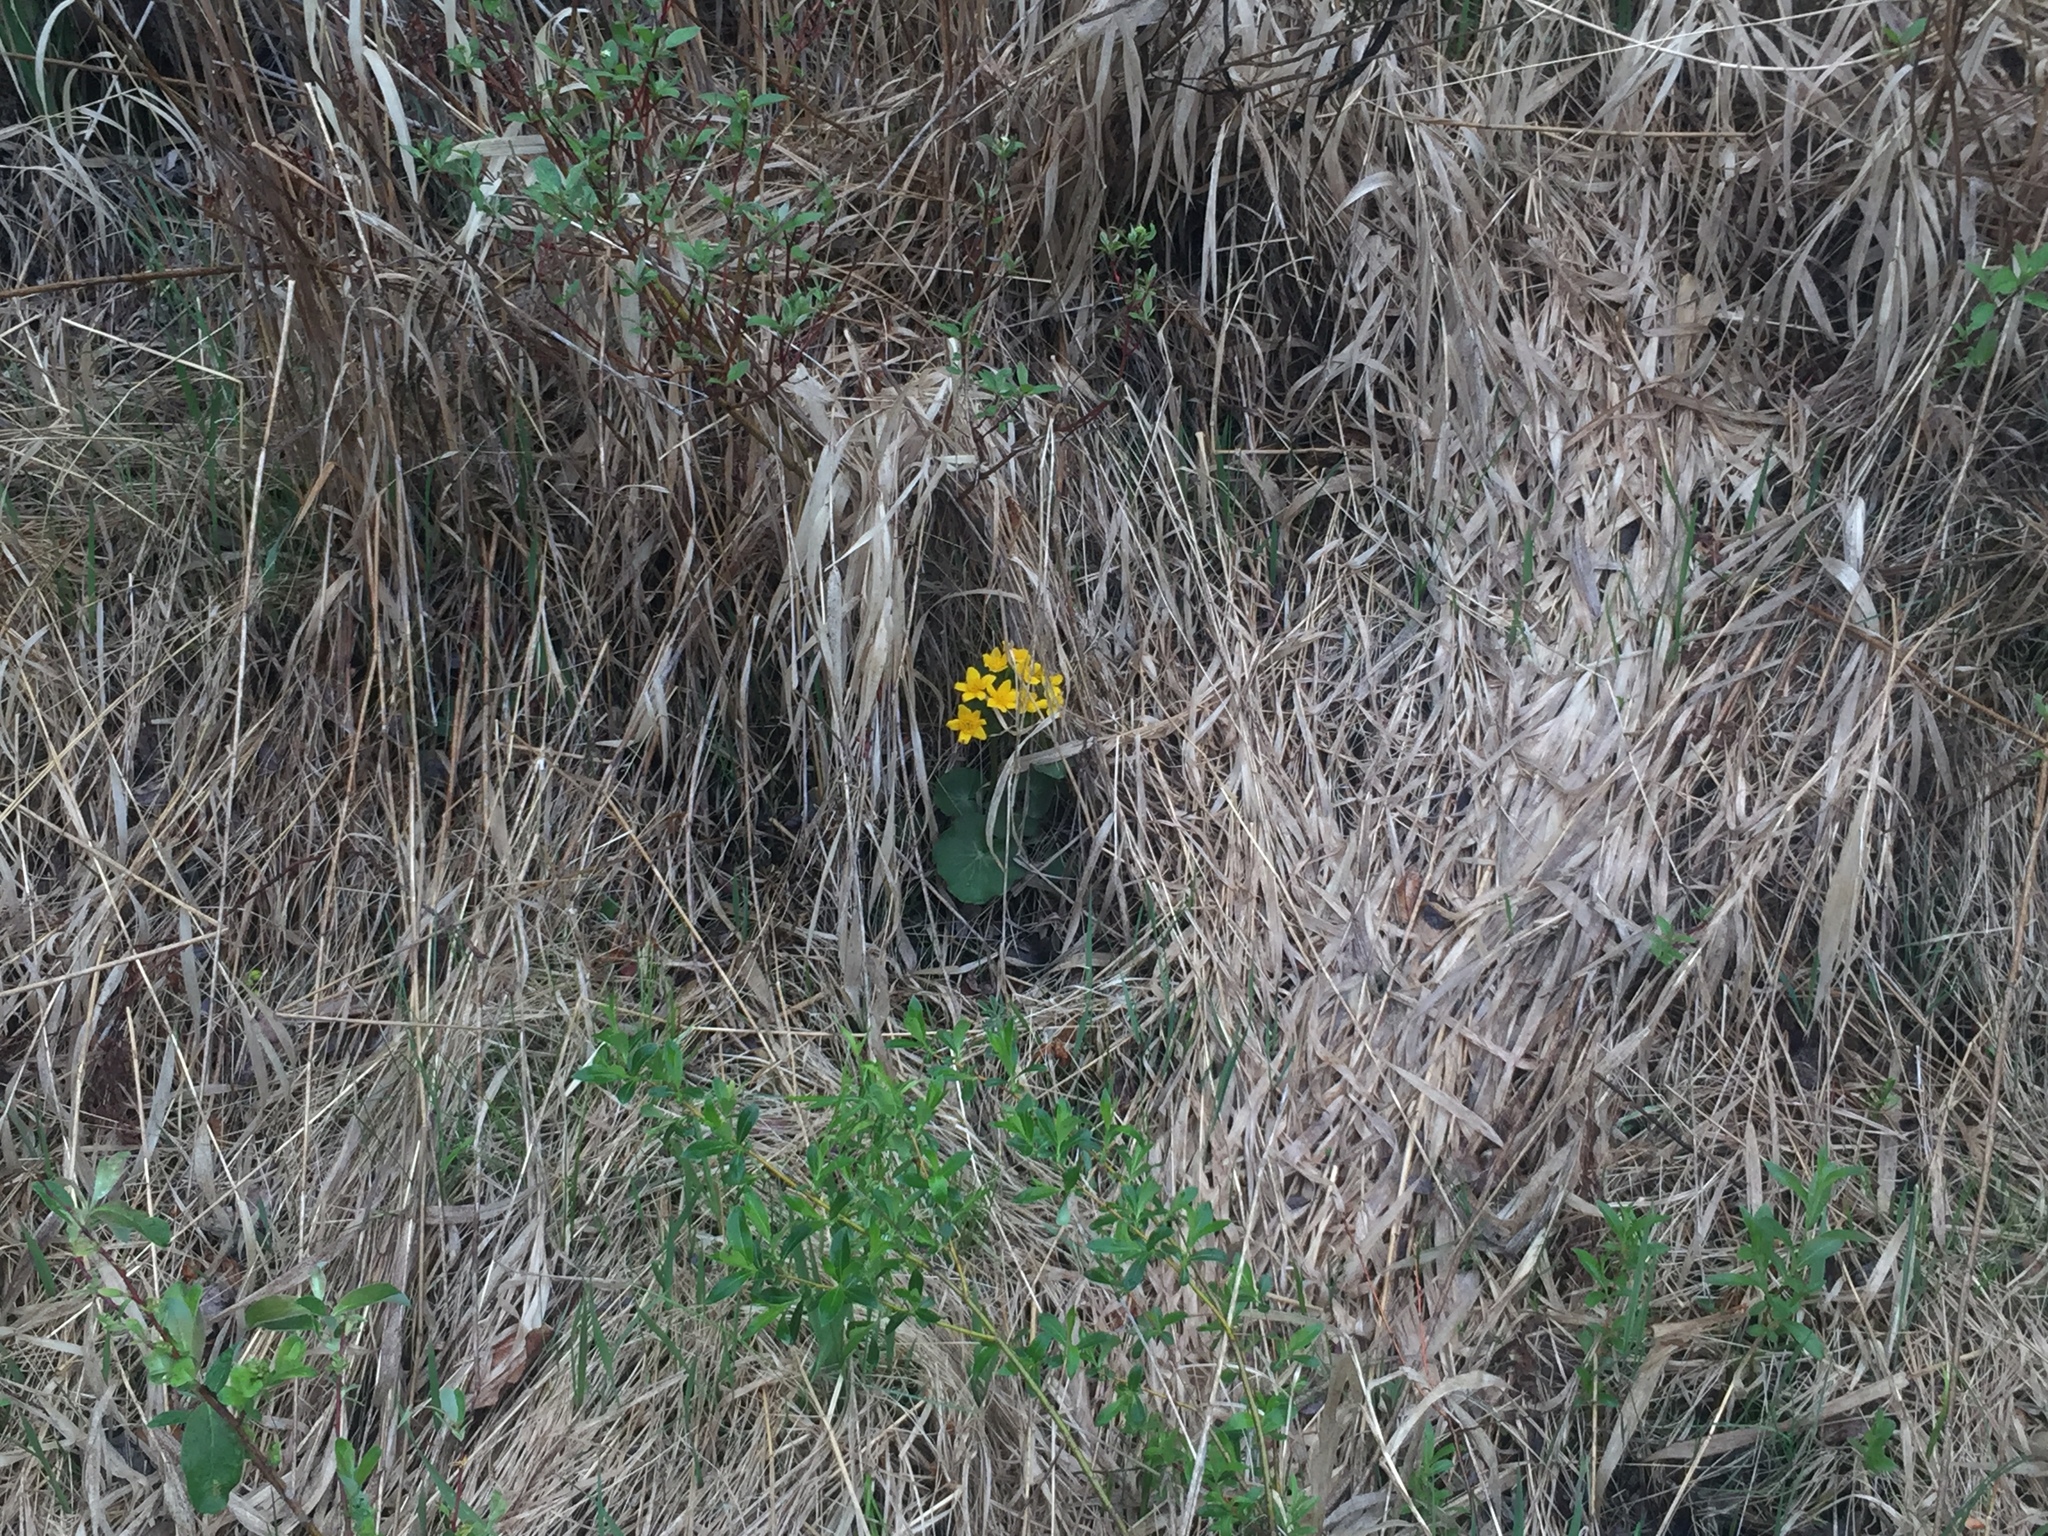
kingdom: Plantae
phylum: Tracheophyta
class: Magnoliopsida
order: Ranunculales
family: Ranunculaceae
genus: Caltha
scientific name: Caltha palustris
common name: Marsh marigold
